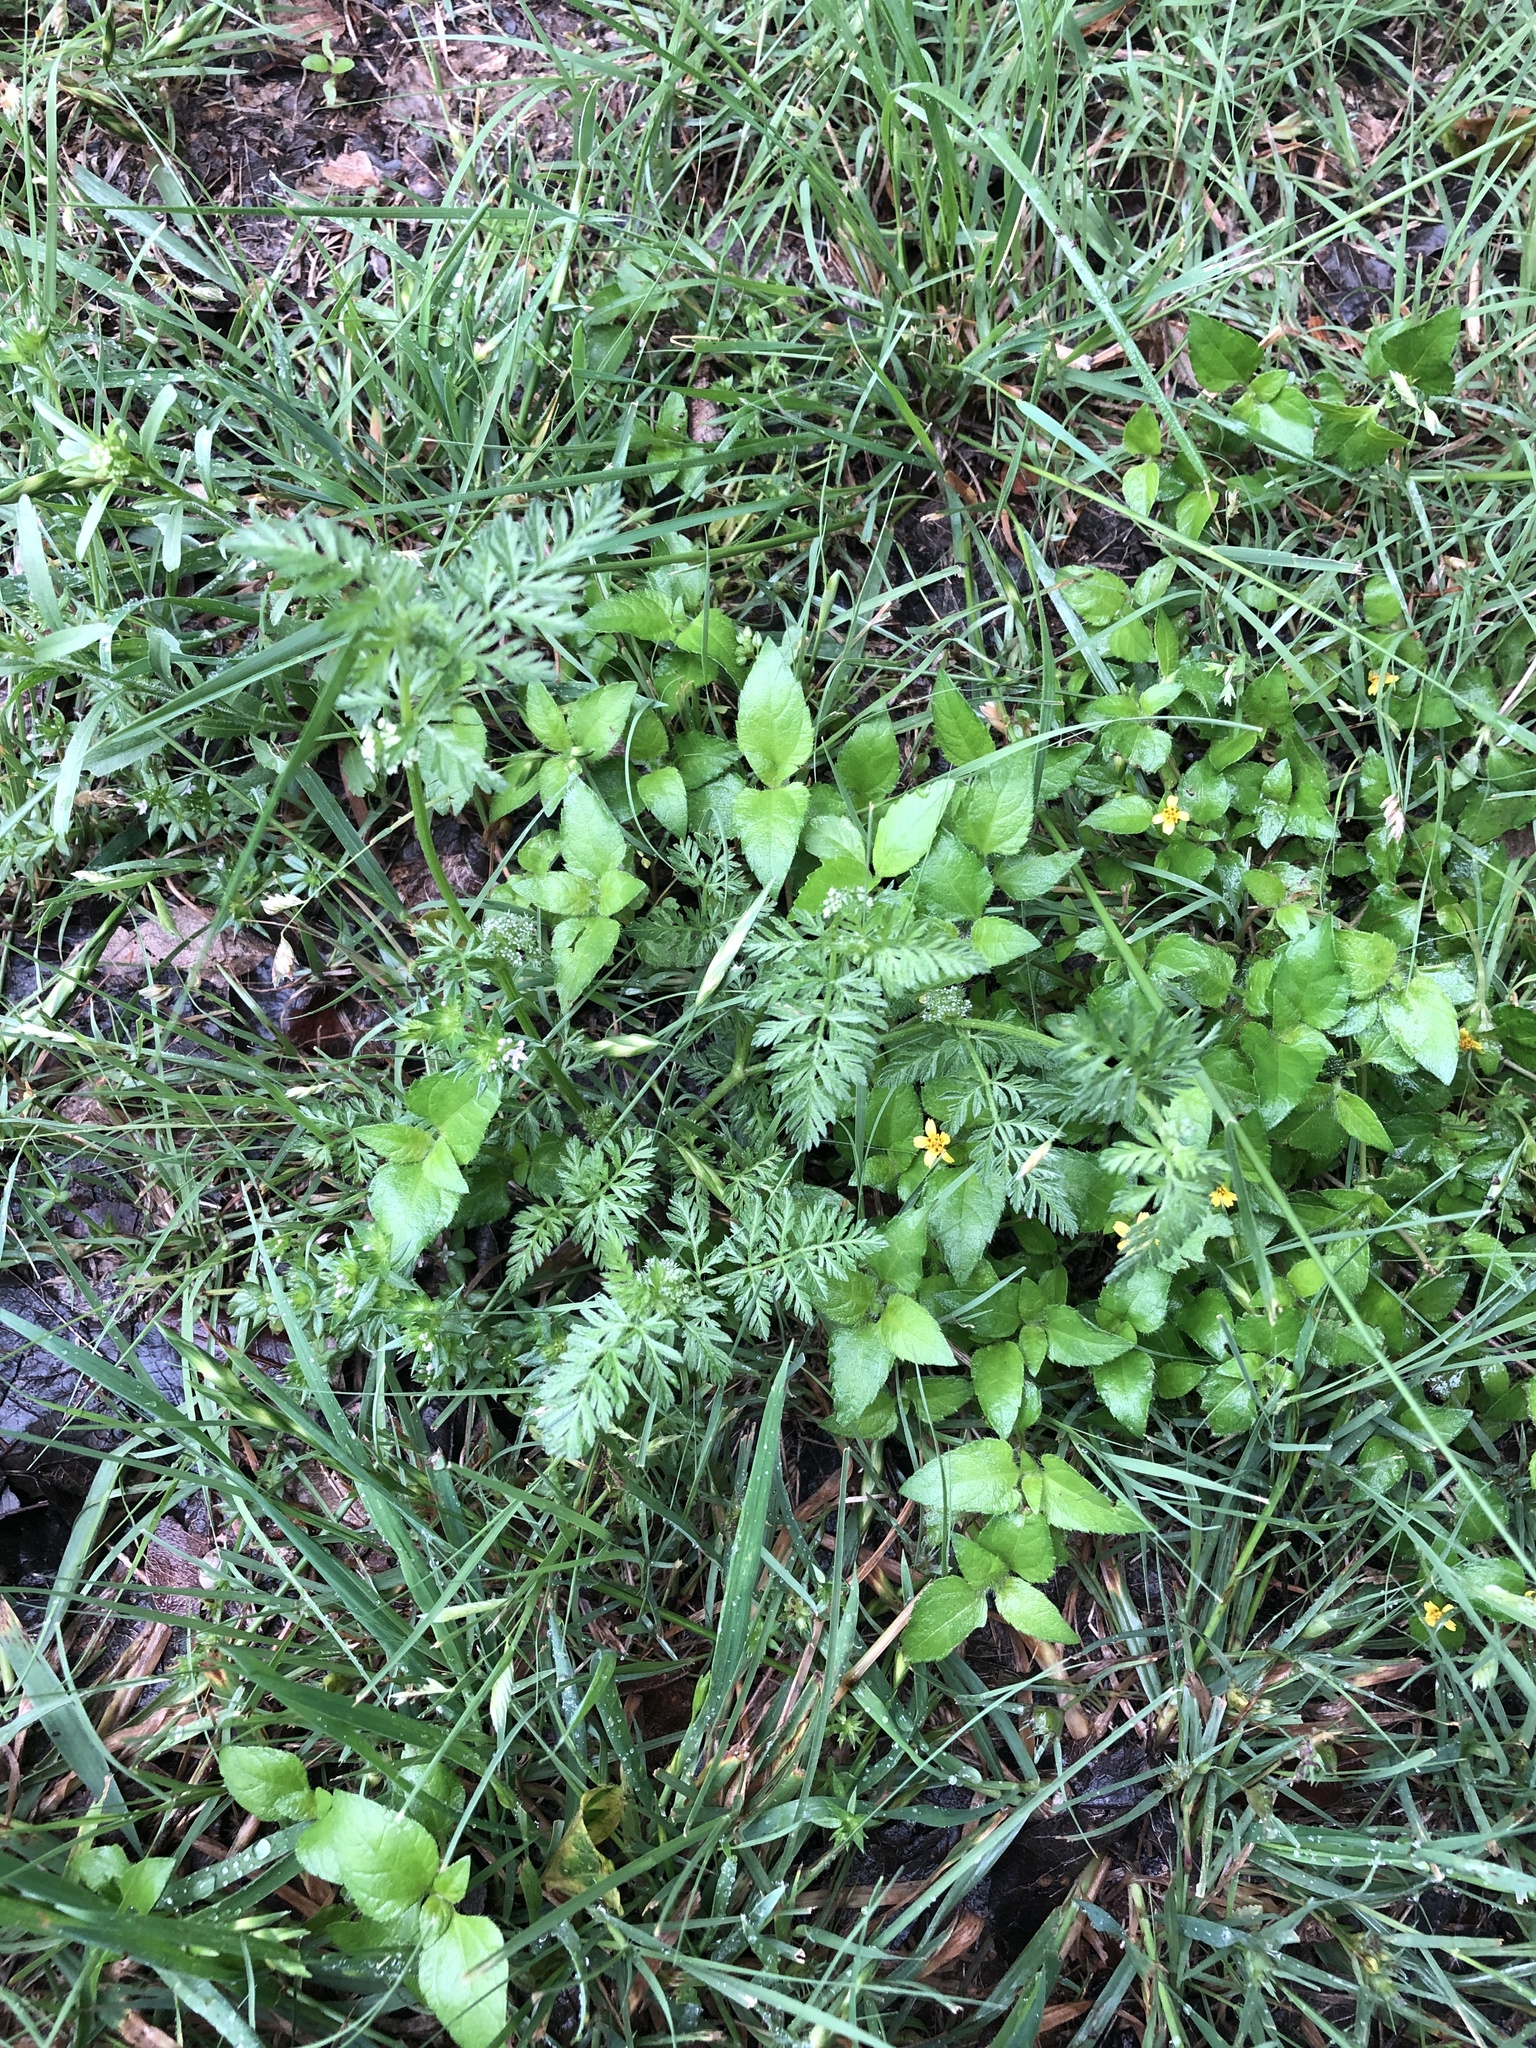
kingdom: Plantae
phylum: Tracheophyta
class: Magnoliopsida
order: Apiales
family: Apiaceae
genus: Torilis
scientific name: Torilis nodosa
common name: Knotted hedge-parsley
